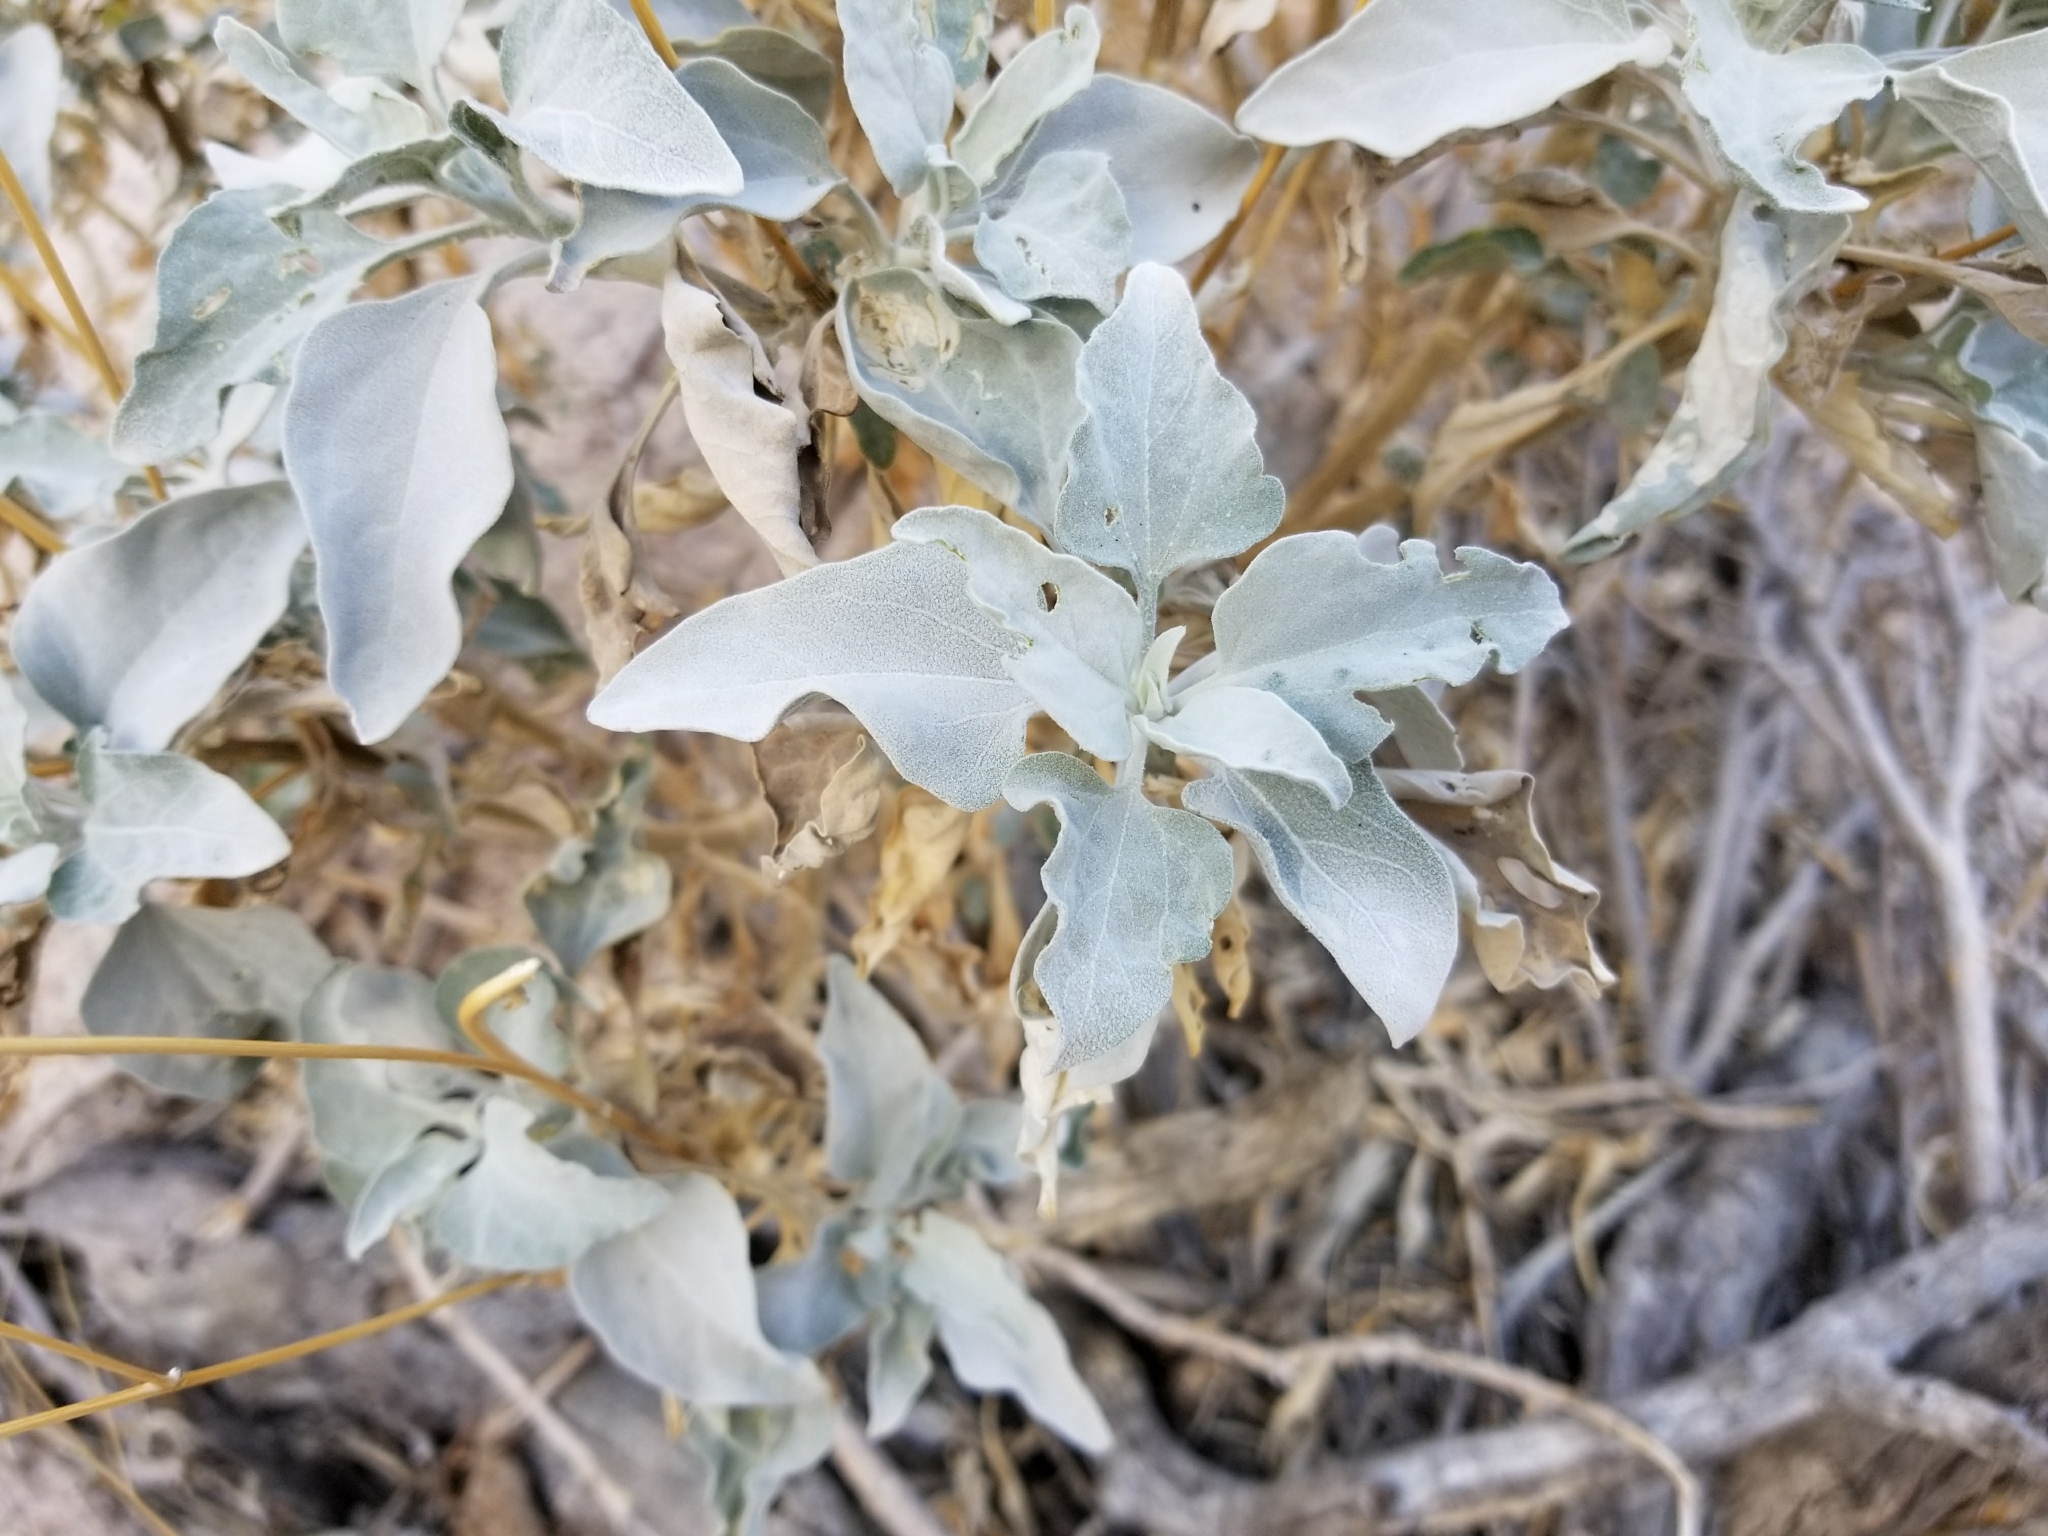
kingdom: Plantae
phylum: Tracheophyta
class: Magnoliopsida
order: Asterales
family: Asteraceae
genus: Encelia
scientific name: Encelia farinosa
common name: Brittlebush
